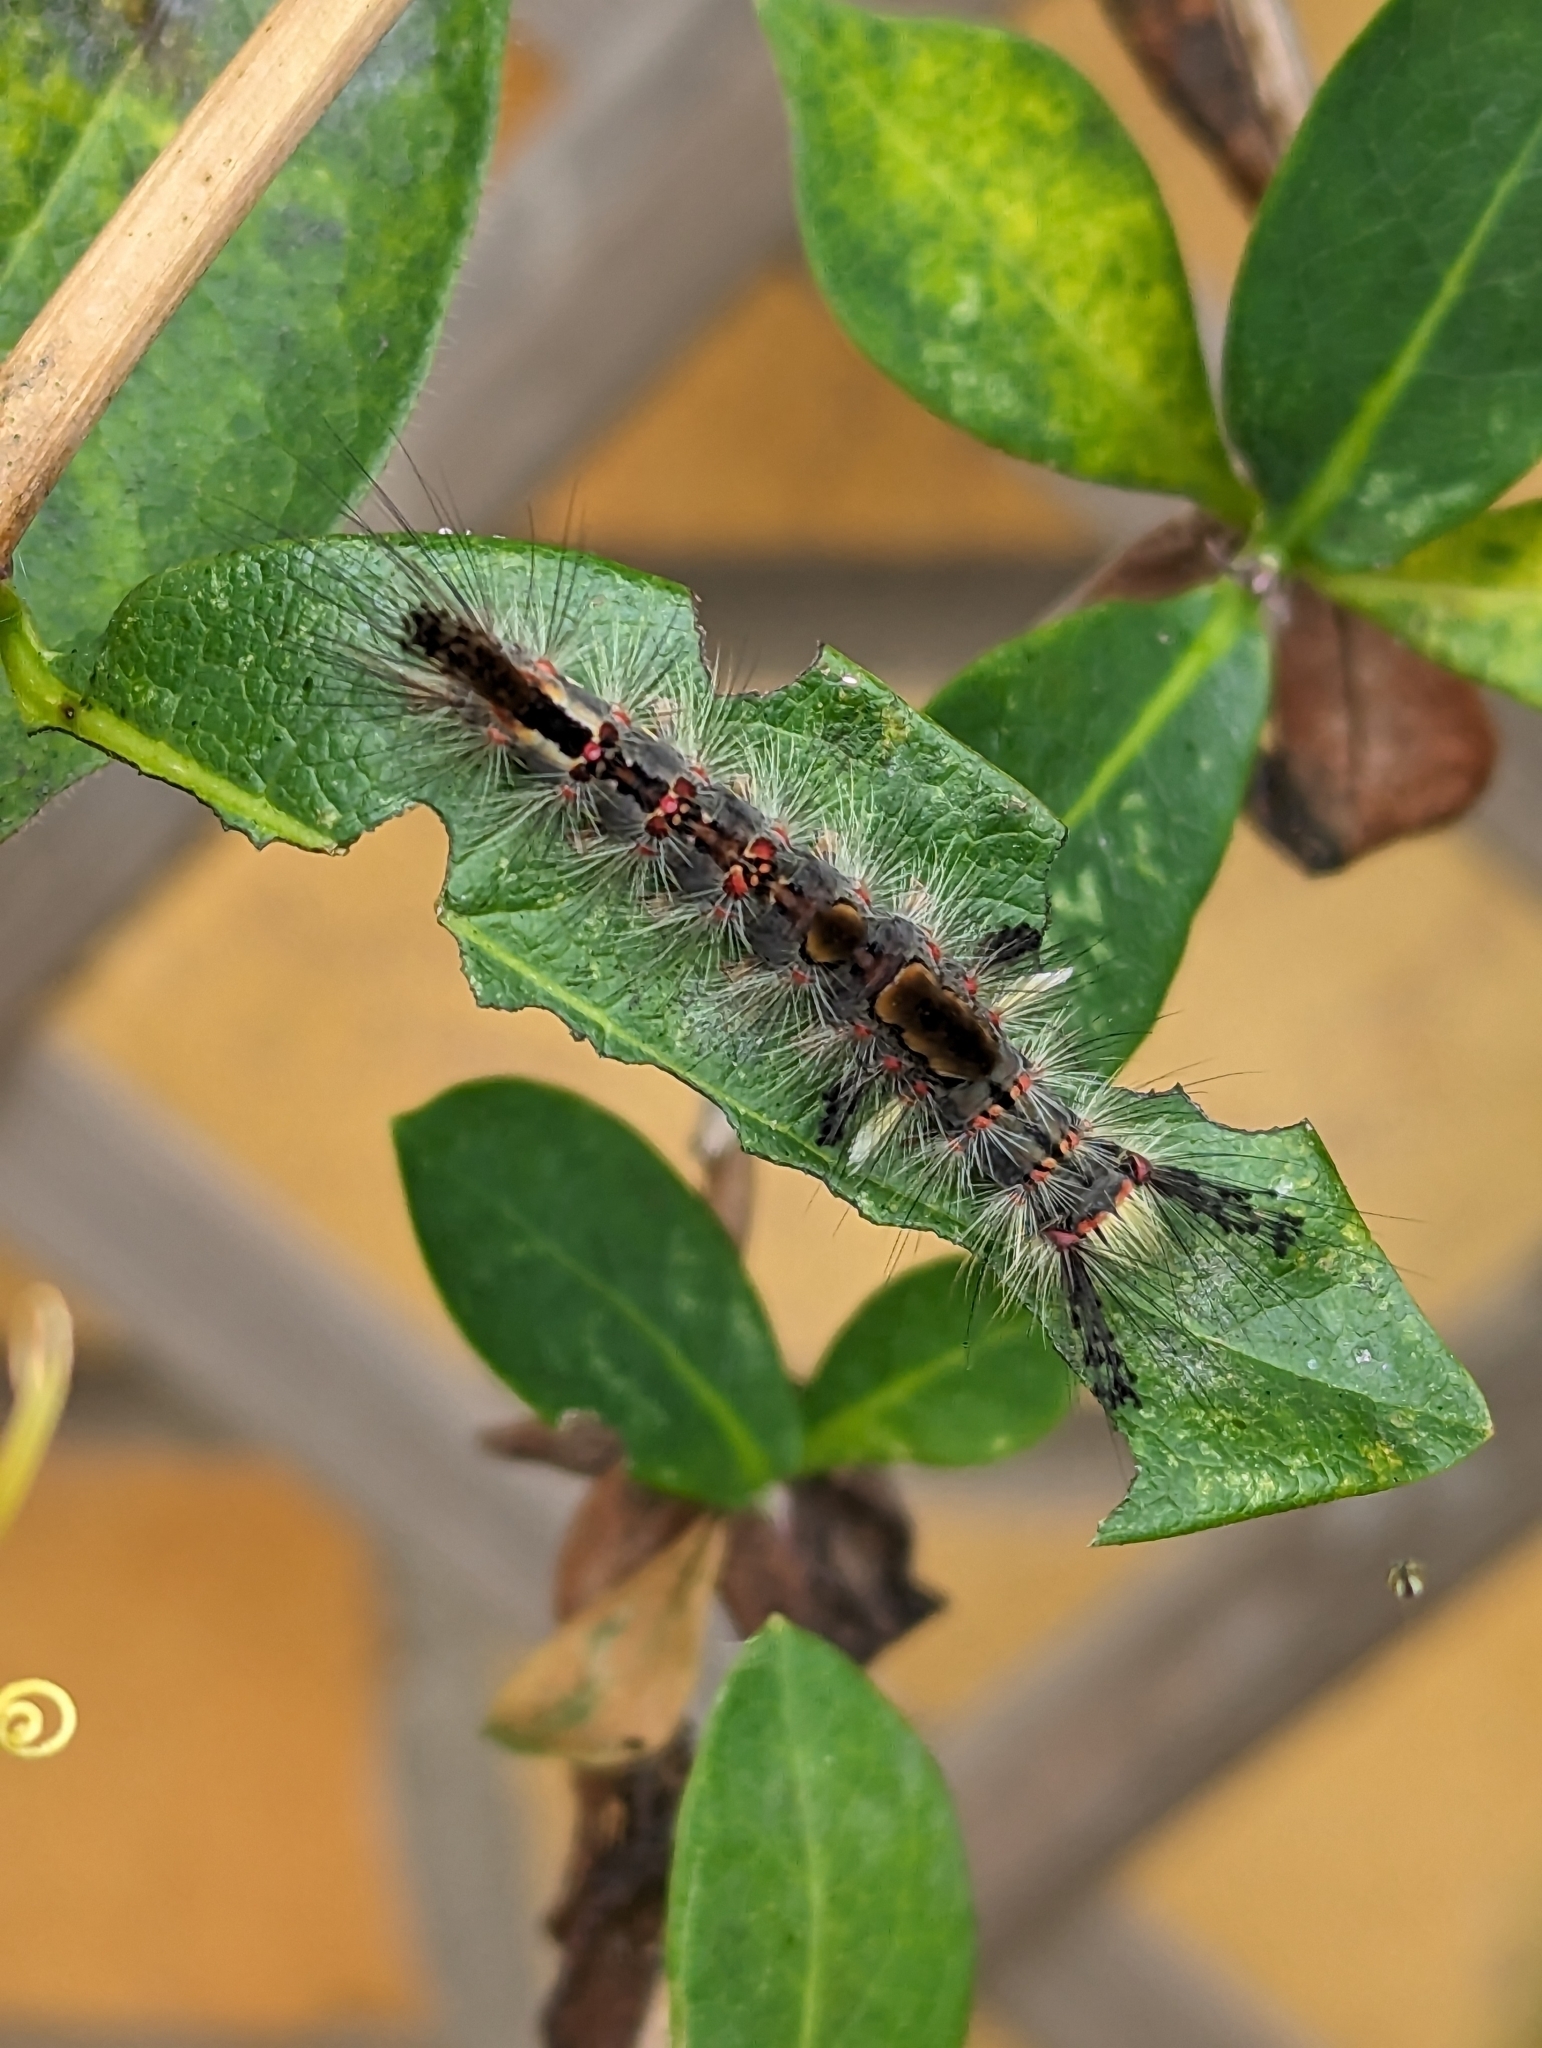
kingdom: Animalia
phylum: Arthropoda
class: Insecta
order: Lepidoptera
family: Erebidae
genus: Orgyia
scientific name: Orgyia antiqua
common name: Vapourer
